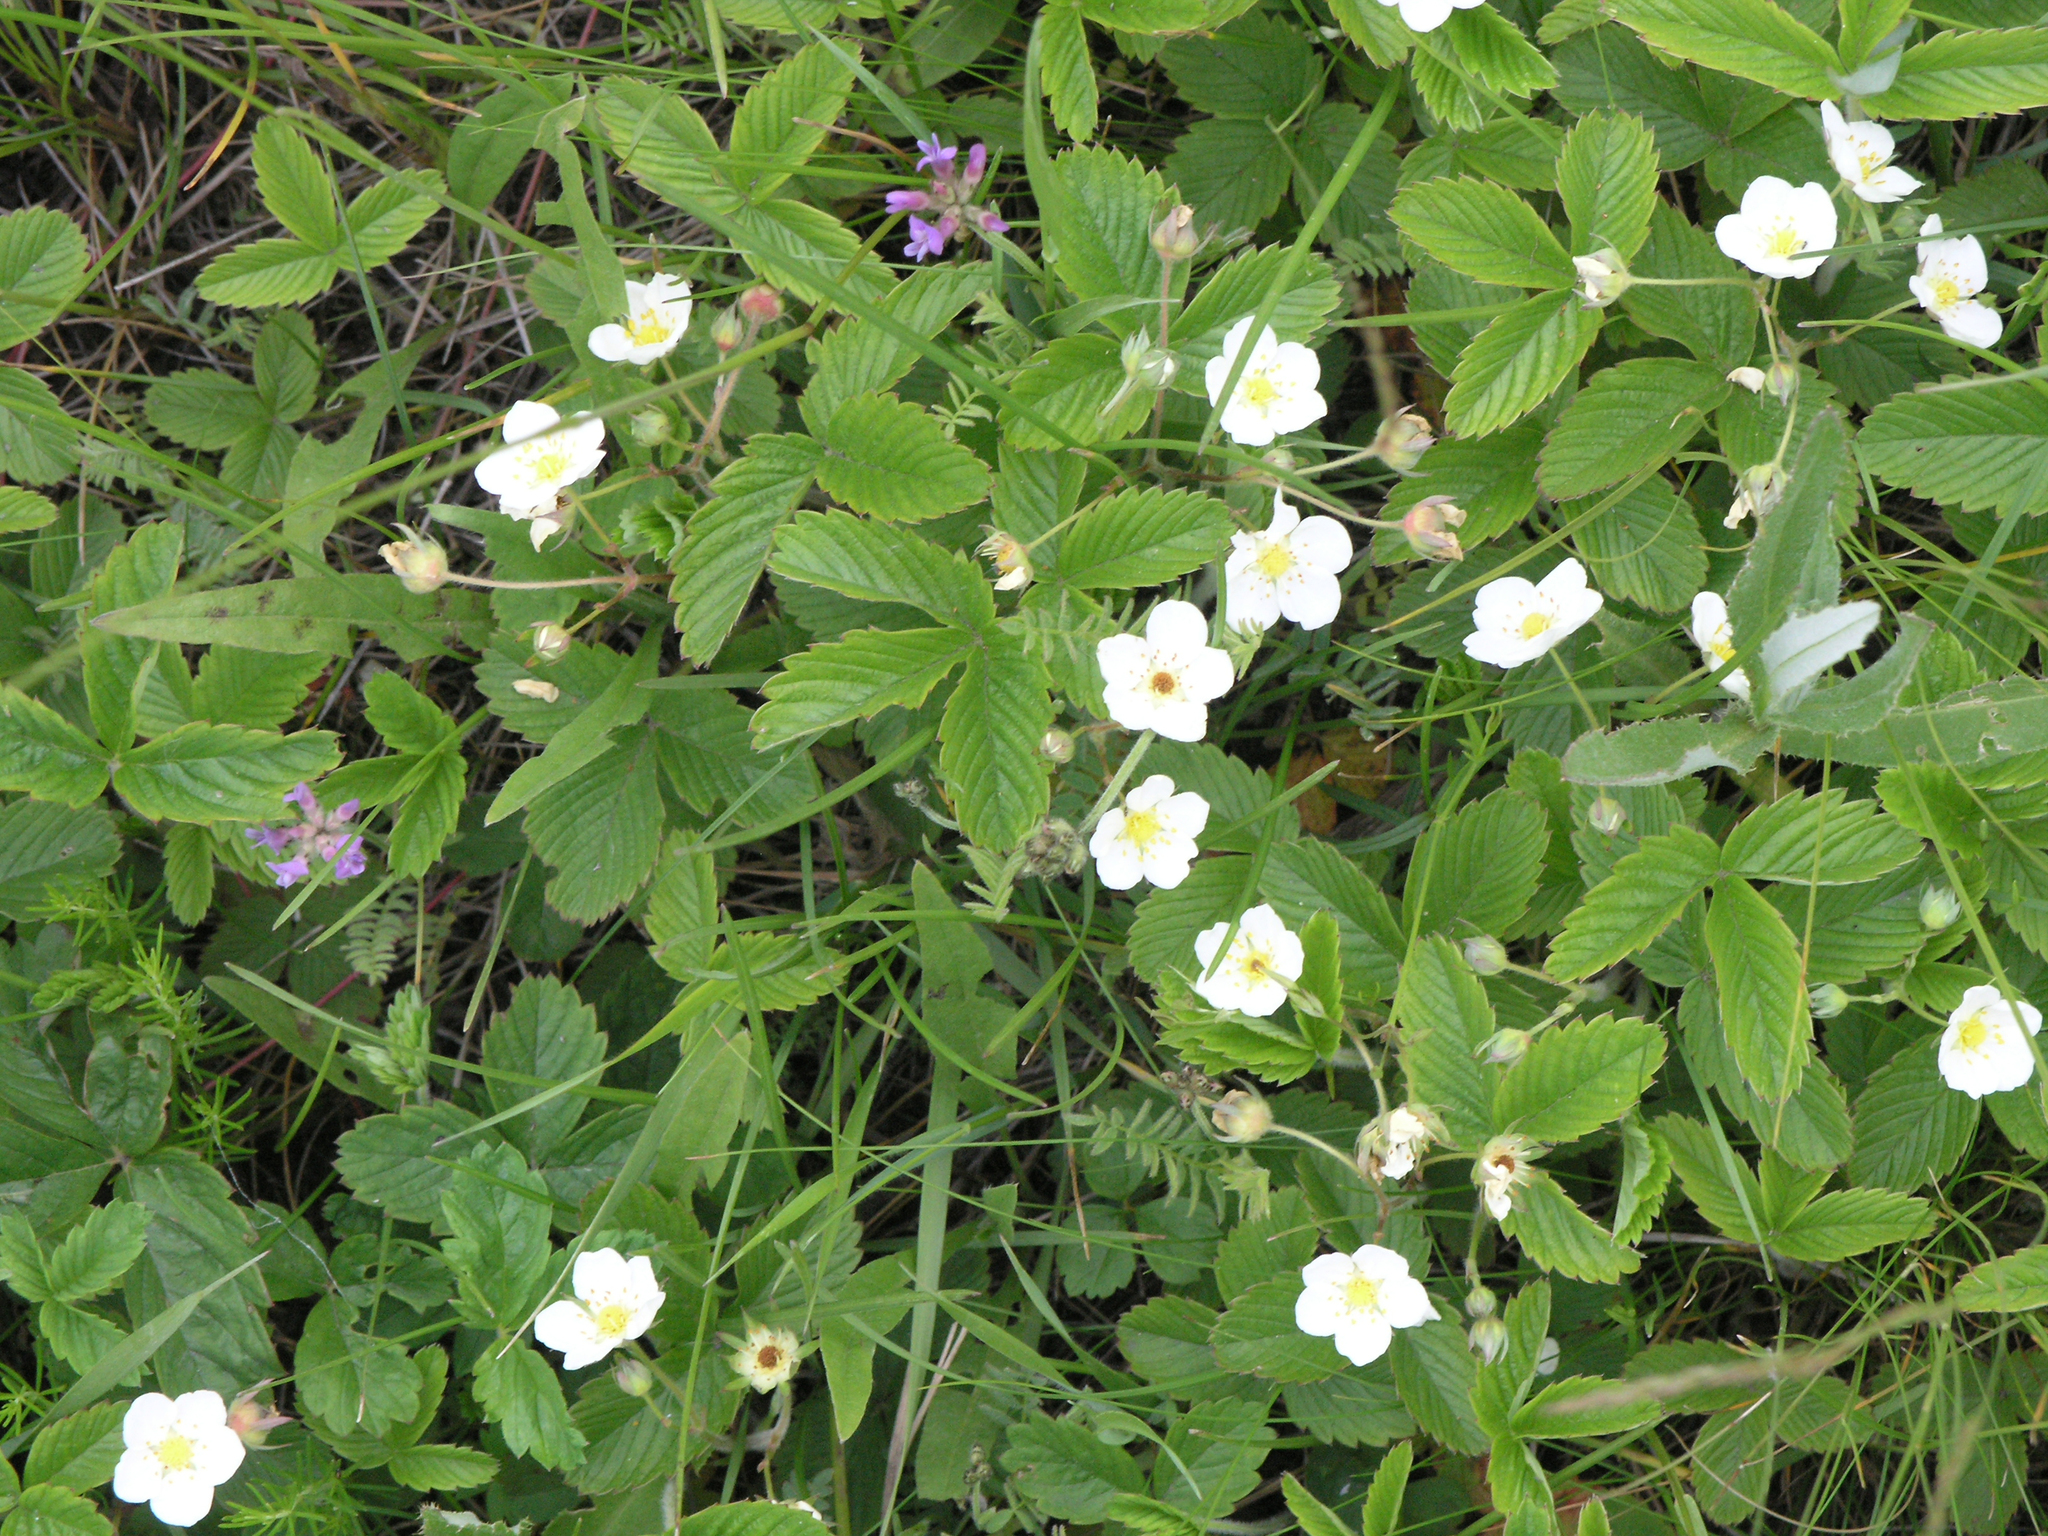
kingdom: Plantae
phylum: Tracheophyta
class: Magnoliopsida
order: Rosales
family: Rosaceae
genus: Fragaria
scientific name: Fragaria viridis
